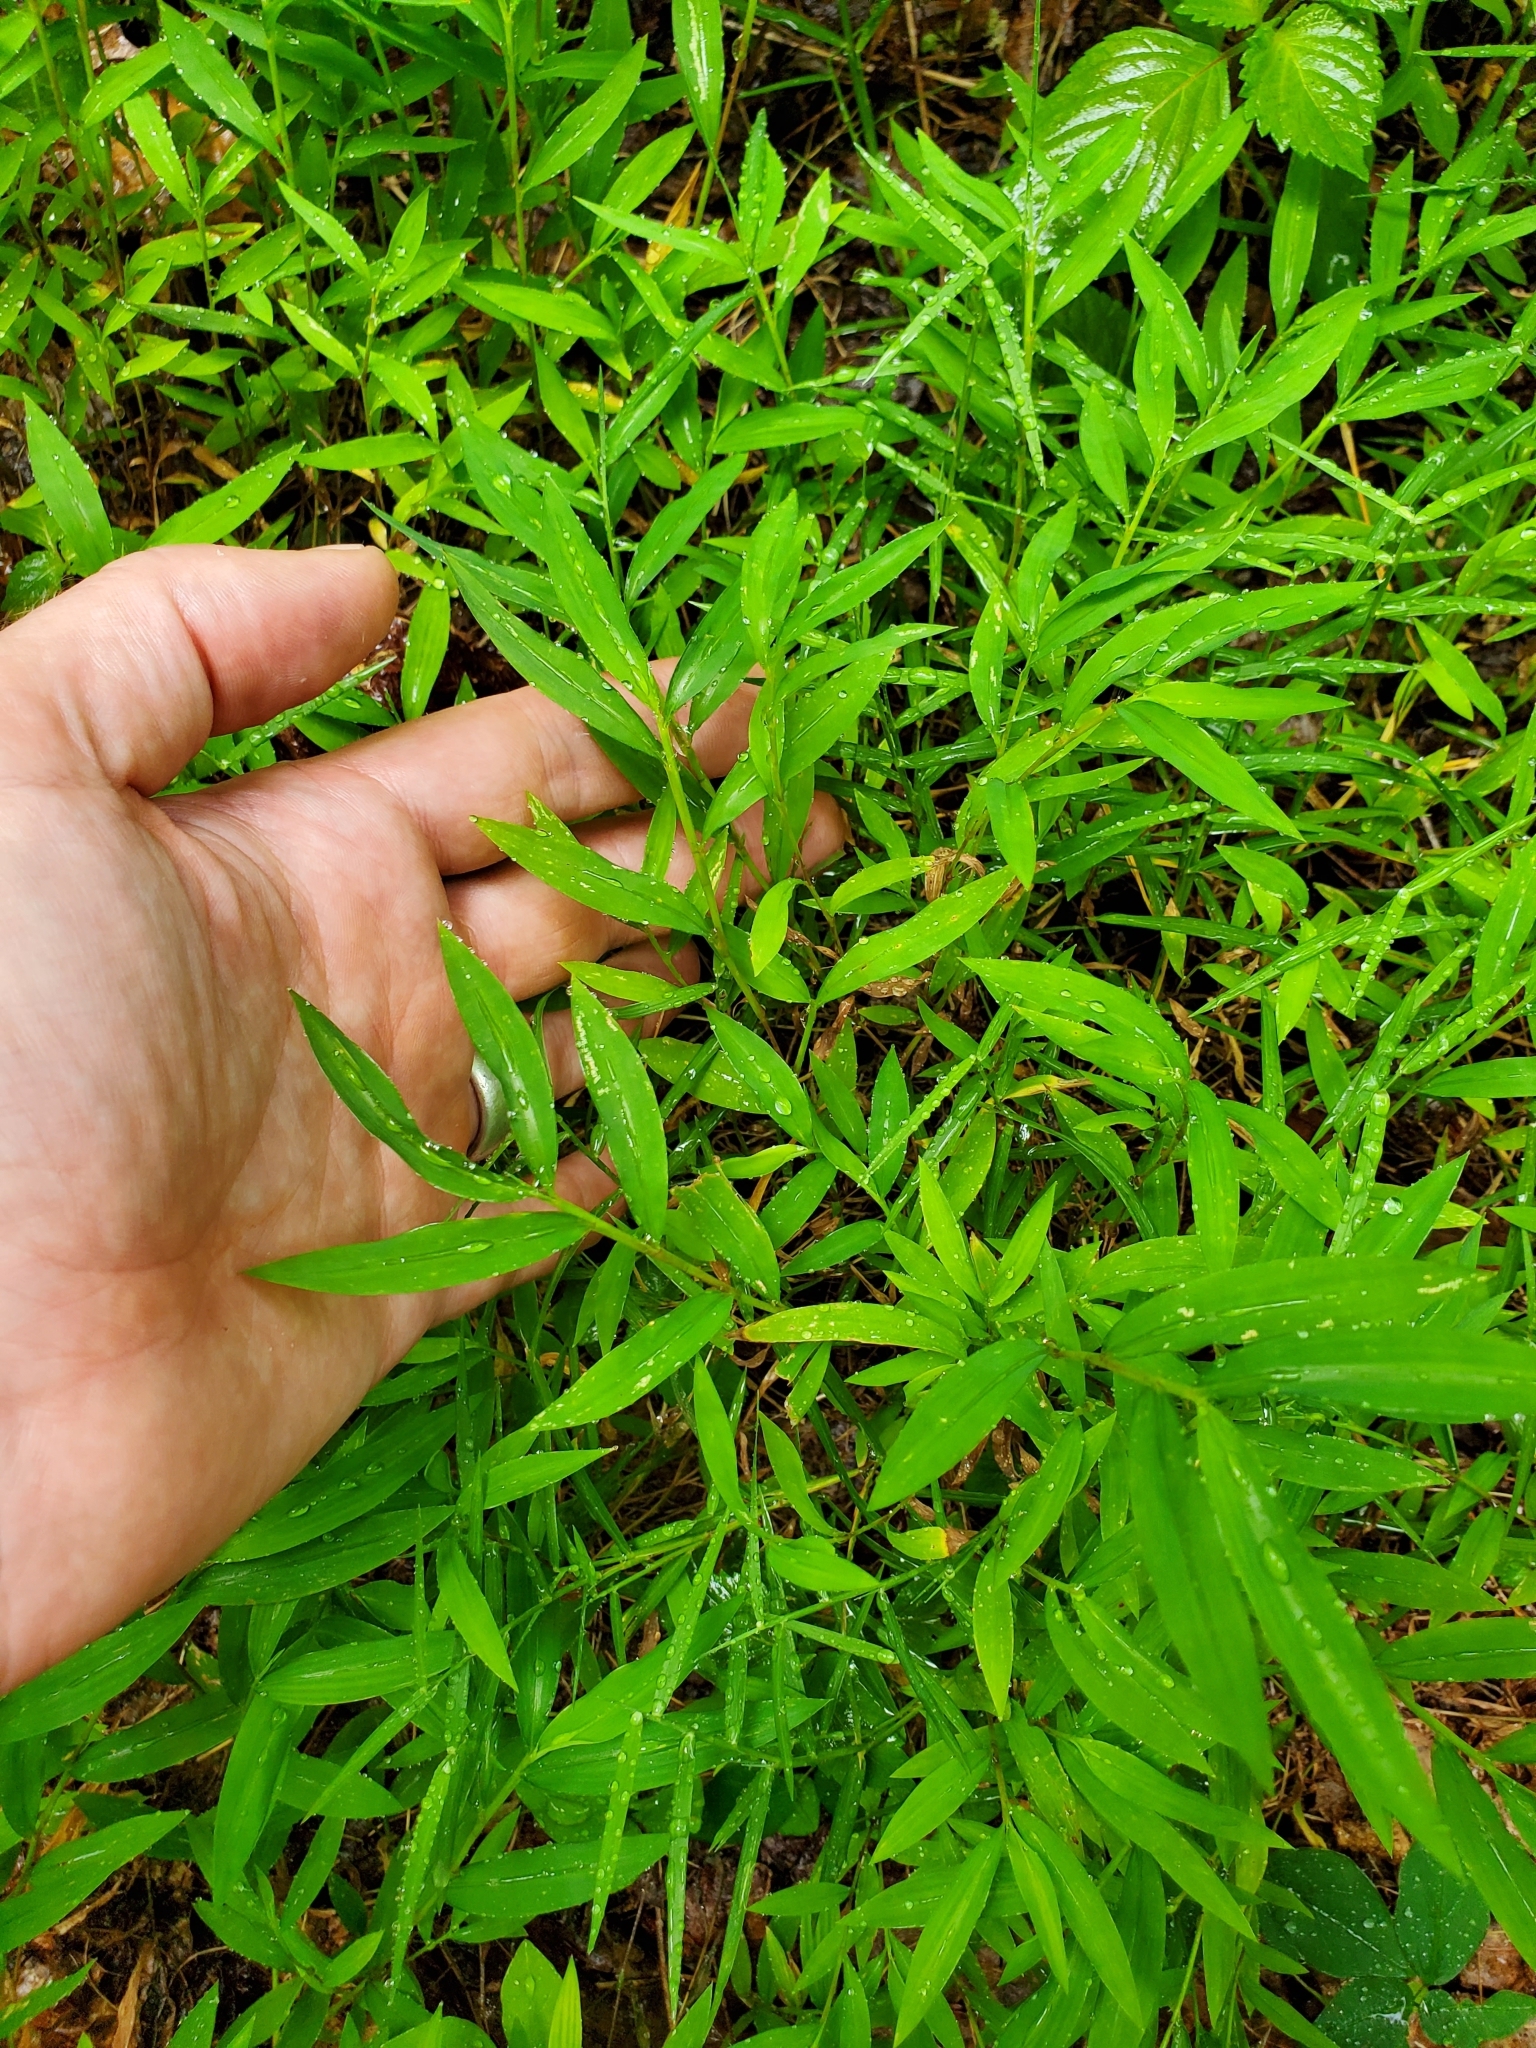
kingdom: Plantae
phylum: Tracheophyta
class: Liliopsida
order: Poales
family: Poaceae
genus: Microstegium
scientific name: Microstegium vimineum
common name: Japanese stiltgrass
